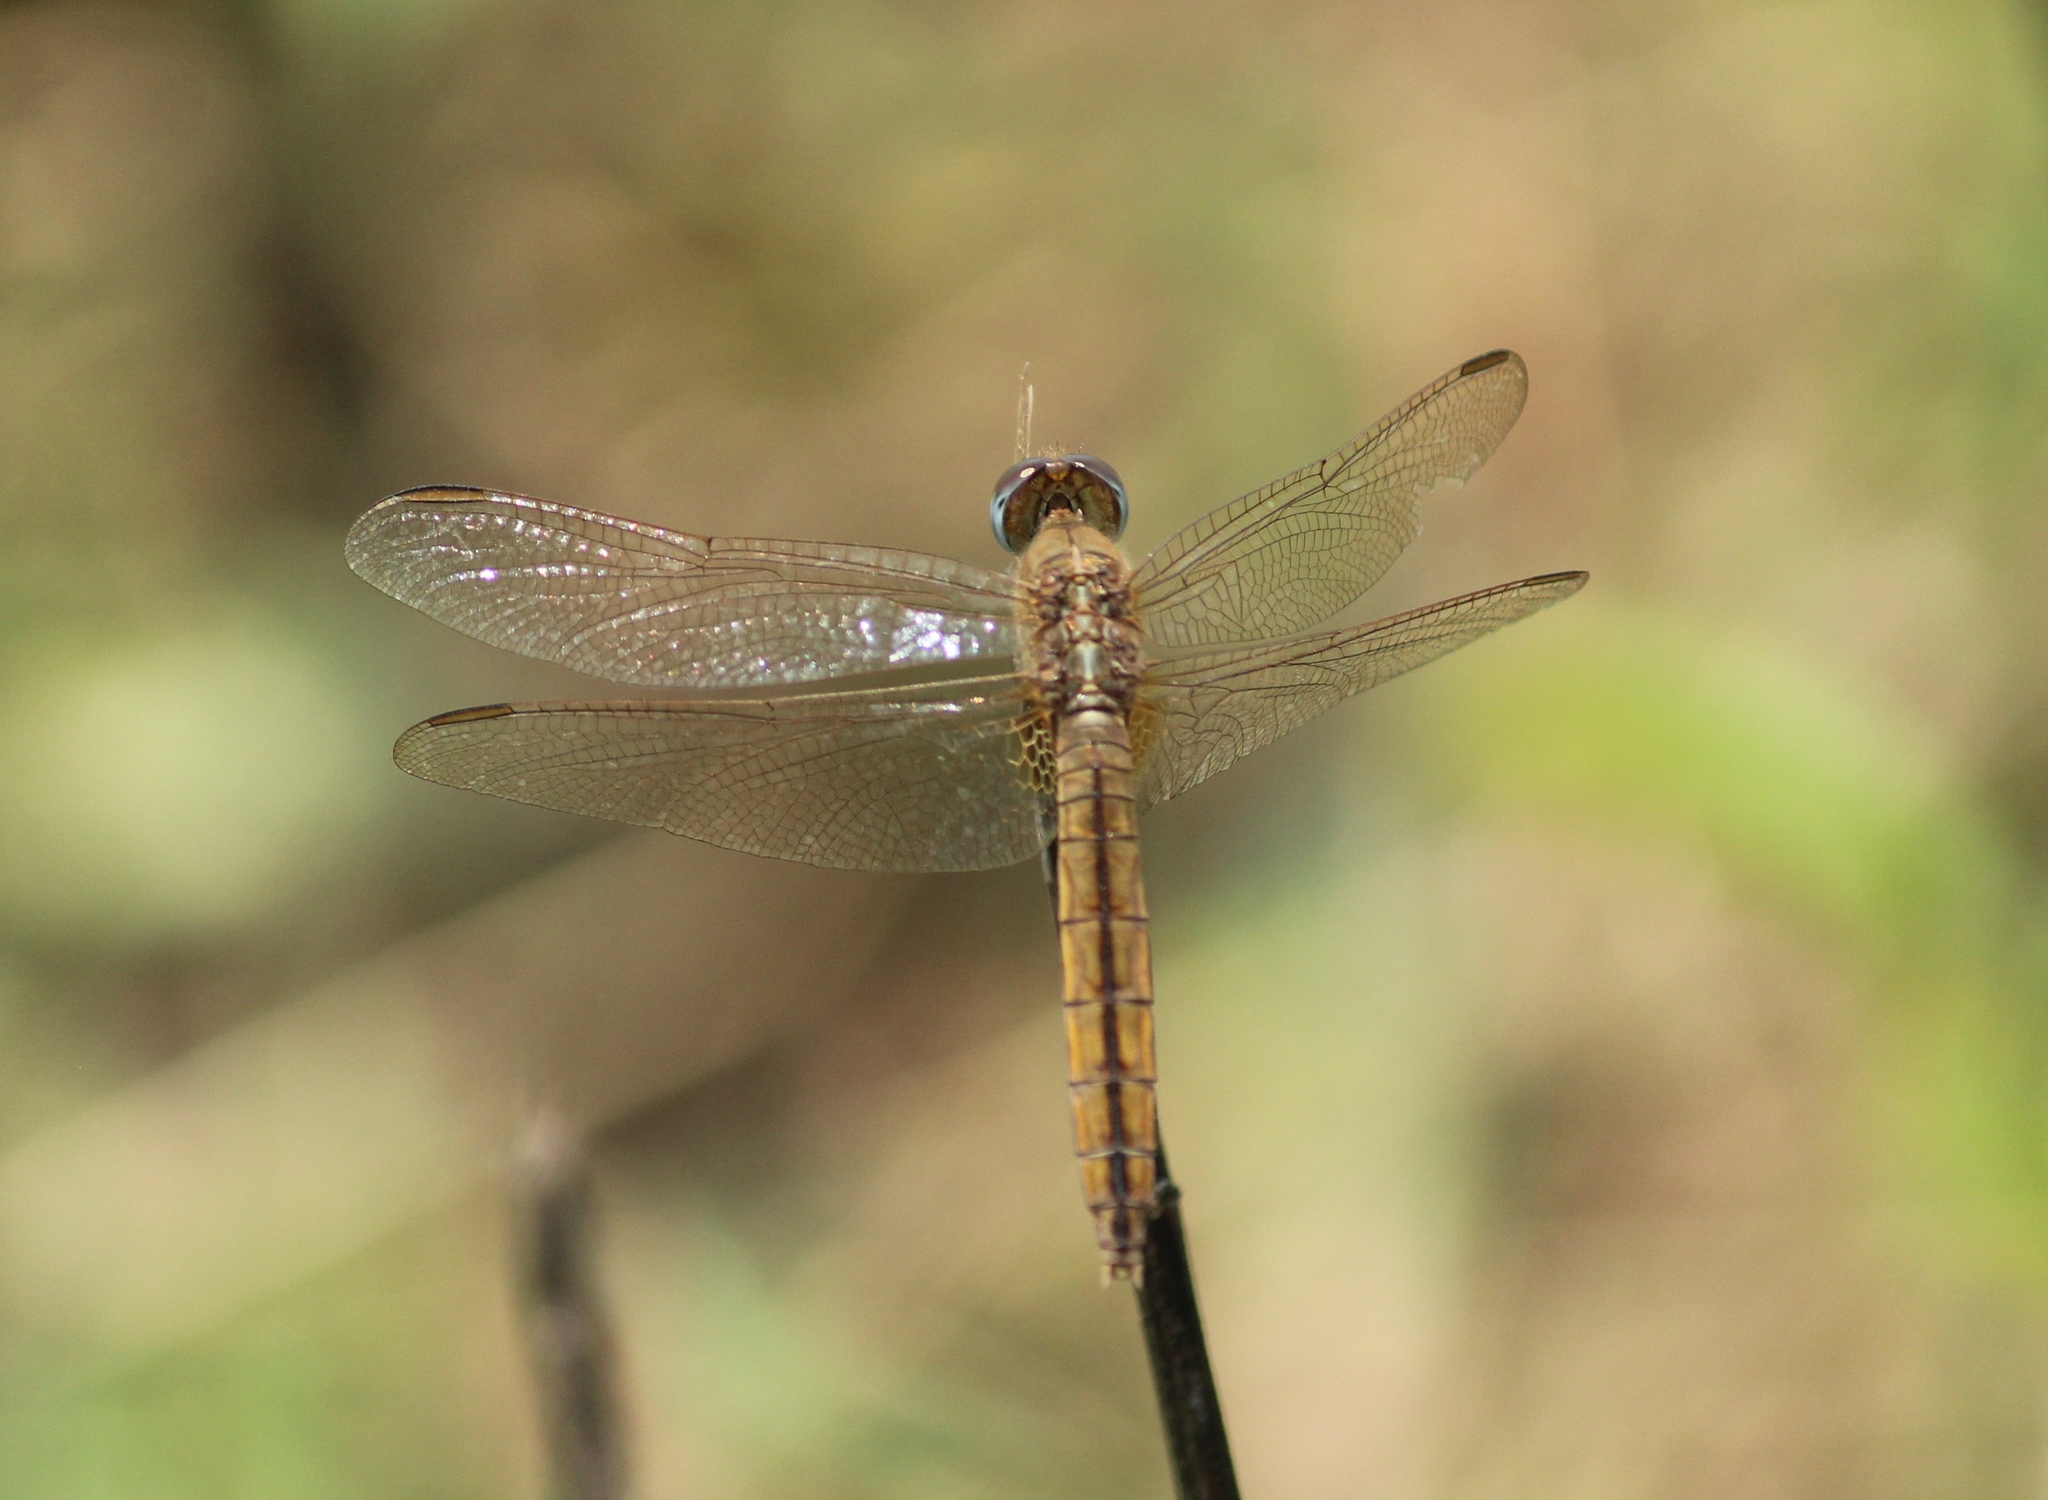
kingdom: Animalia
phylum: Arthropoda
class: Insecta
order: Odonata
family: Libellulidae
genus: Crocothemis
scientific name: Crocothemis servilia
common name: Scarlet skimmer
